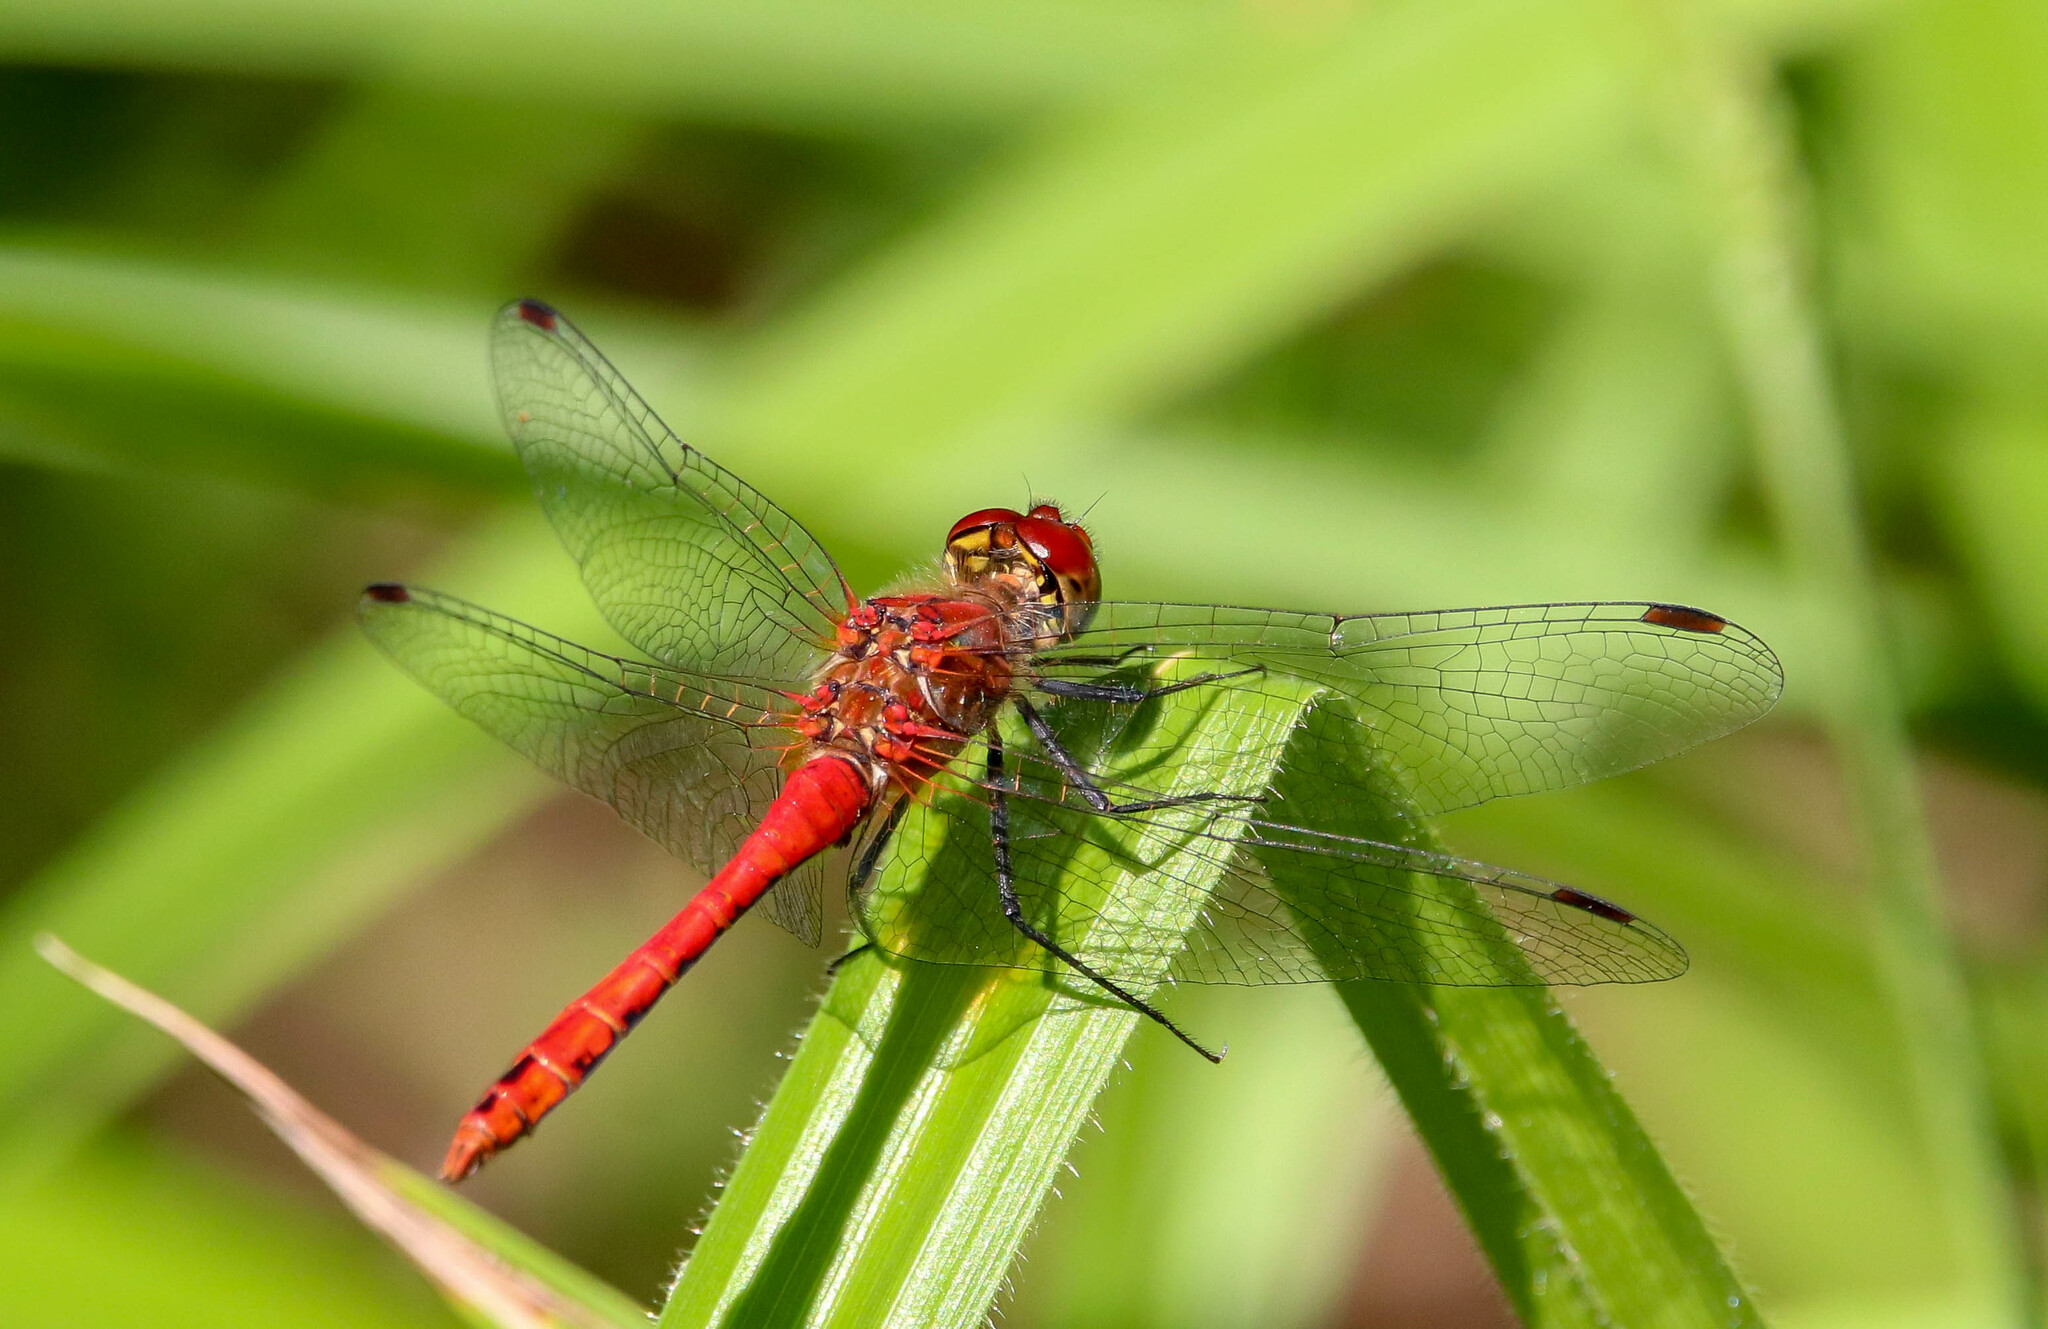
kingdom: Animalia
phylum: Arthropoda
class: Insecta
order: Odonata
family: Libellulidae
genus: Sympetrum
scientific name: Sympetrum sanguineum
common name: Ruddy darter
